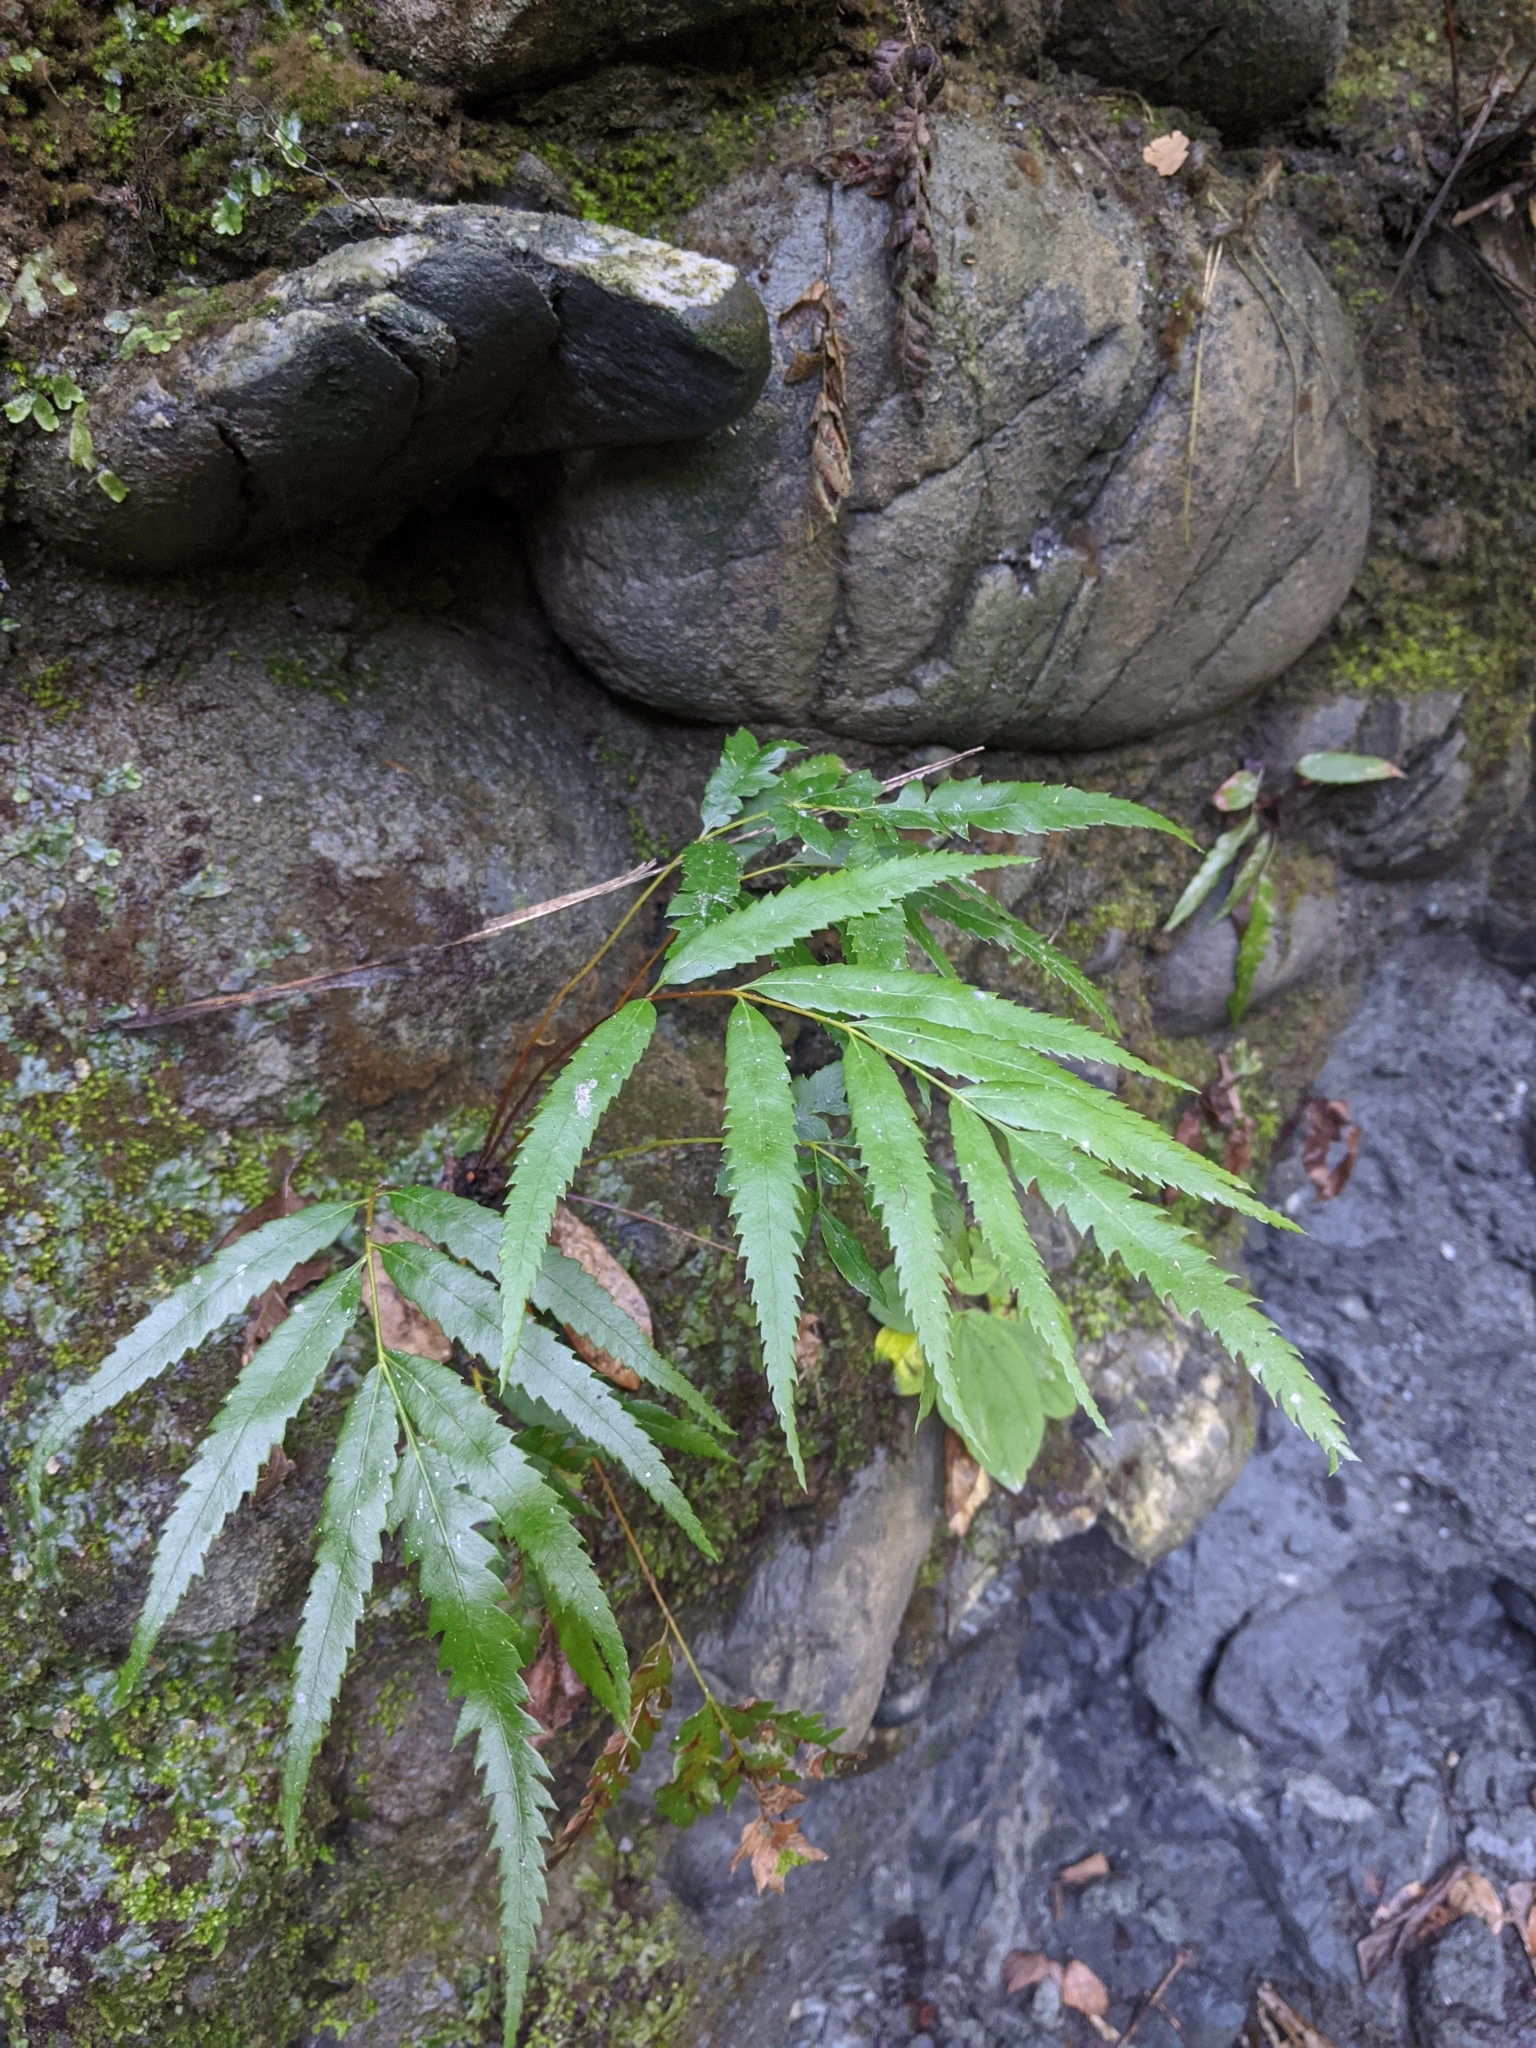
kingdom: Plantae
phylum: Tracheophyta
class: Polypodiopsida
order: Osmundales
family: Osmundaceae
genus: Plenasium
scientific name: Plenasium banksiifolium
